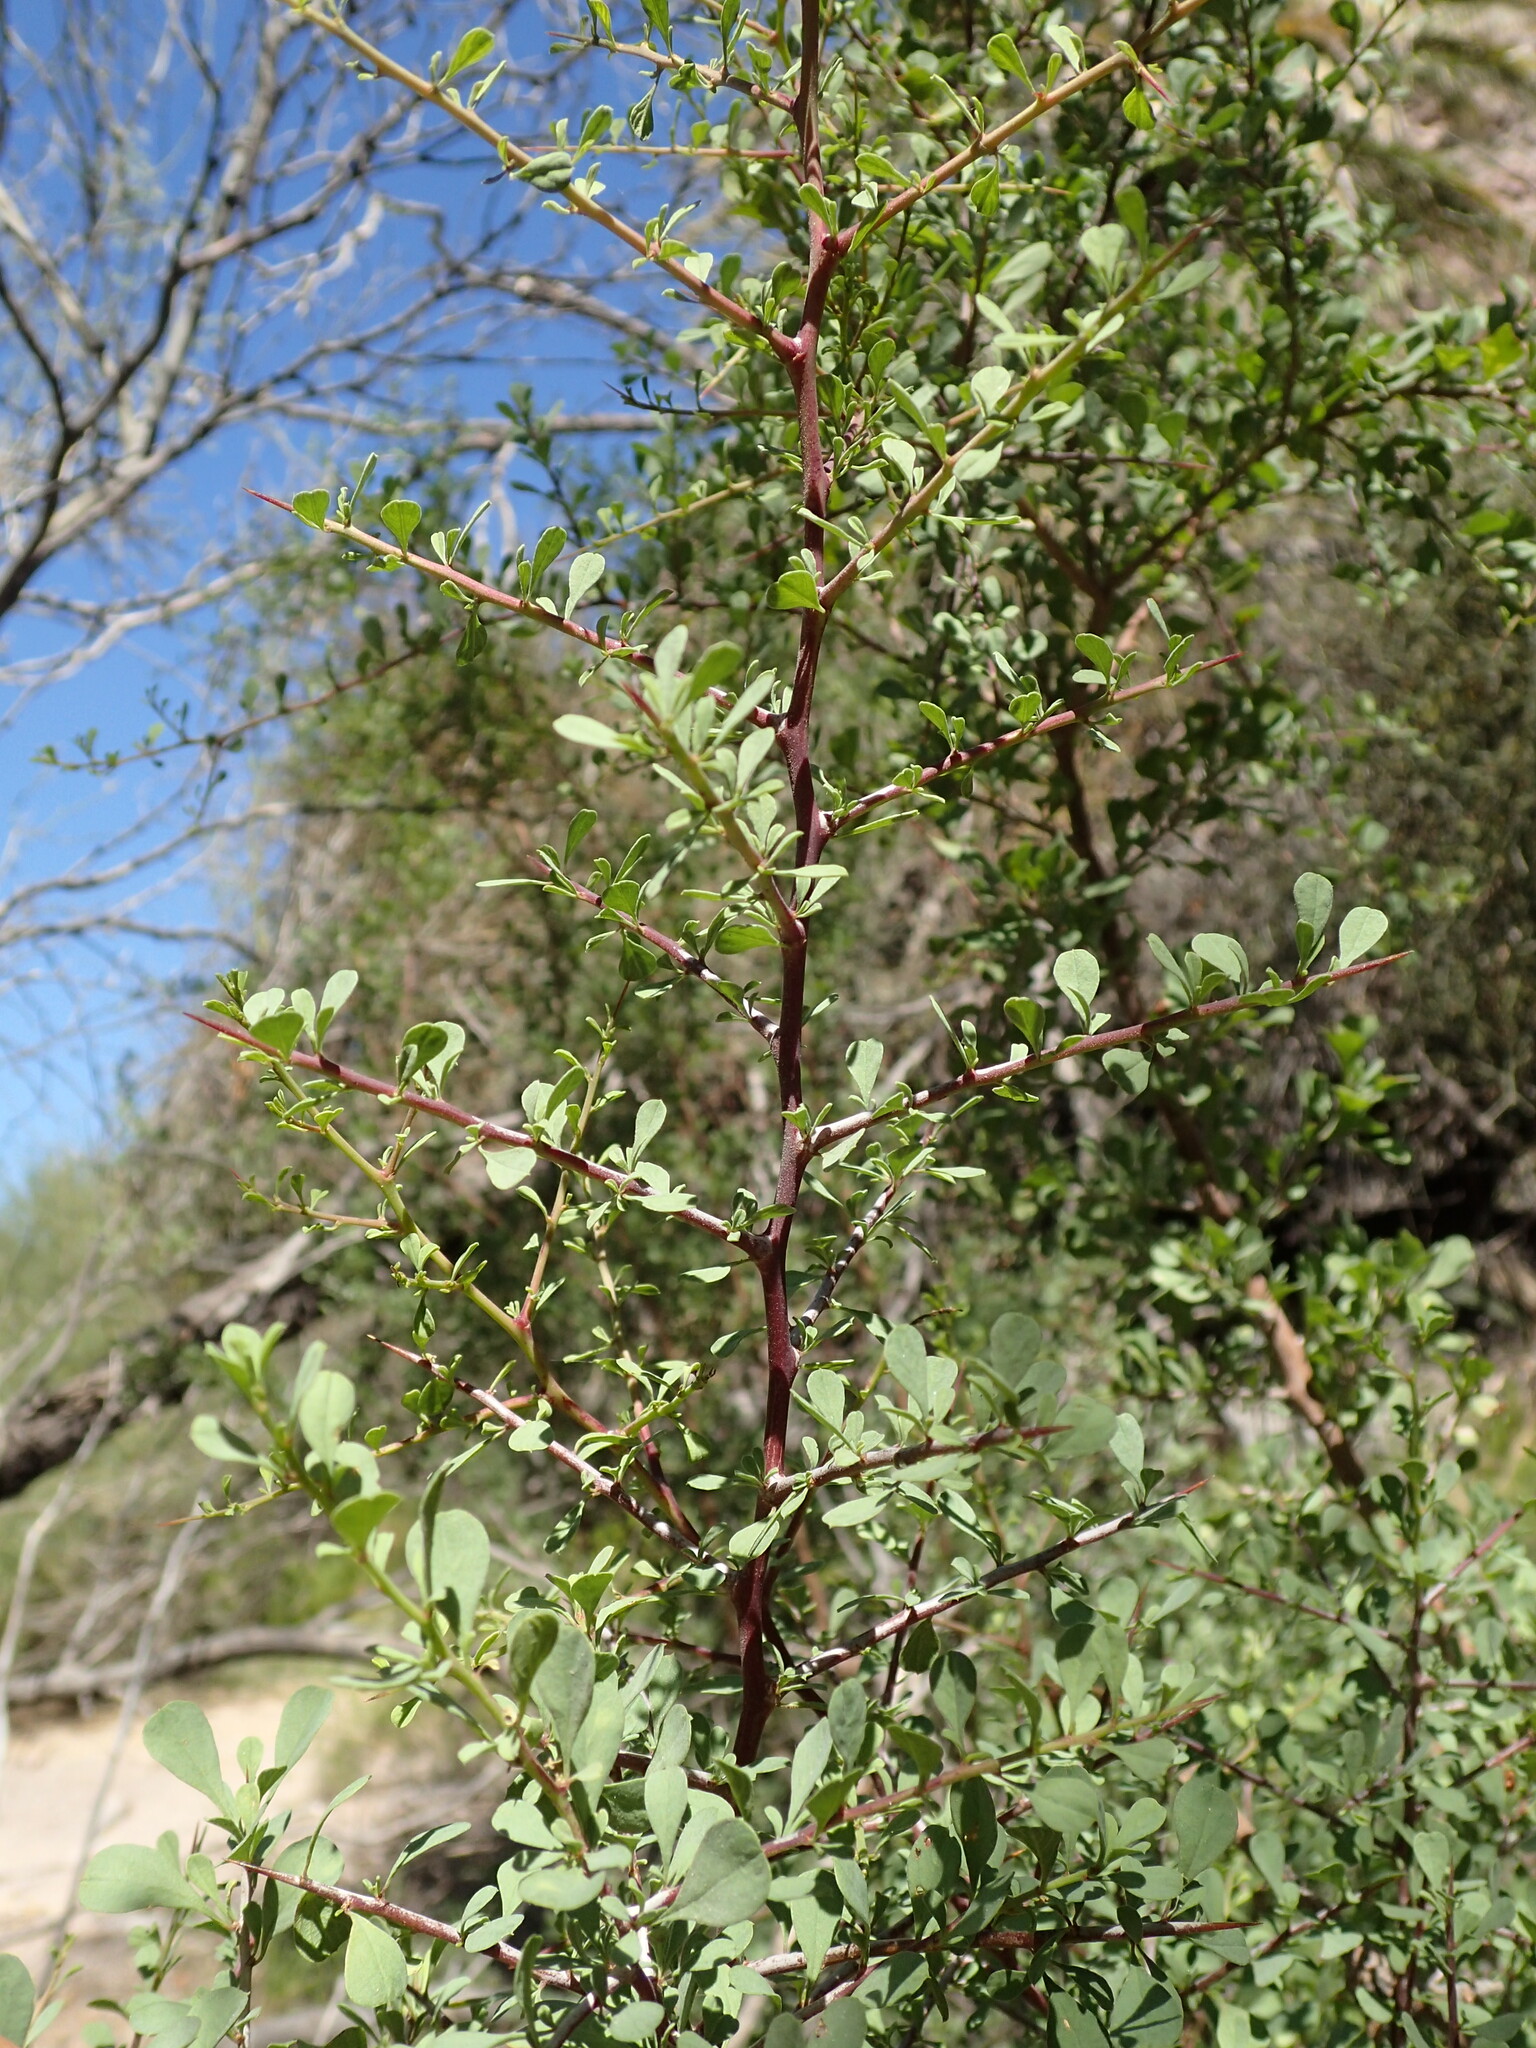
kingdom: Plantae
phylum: Tracheophyta
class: Magnoliopsida
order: Rosales
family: Rhamnaceae
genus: Condalia
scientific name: Condalia globosa
